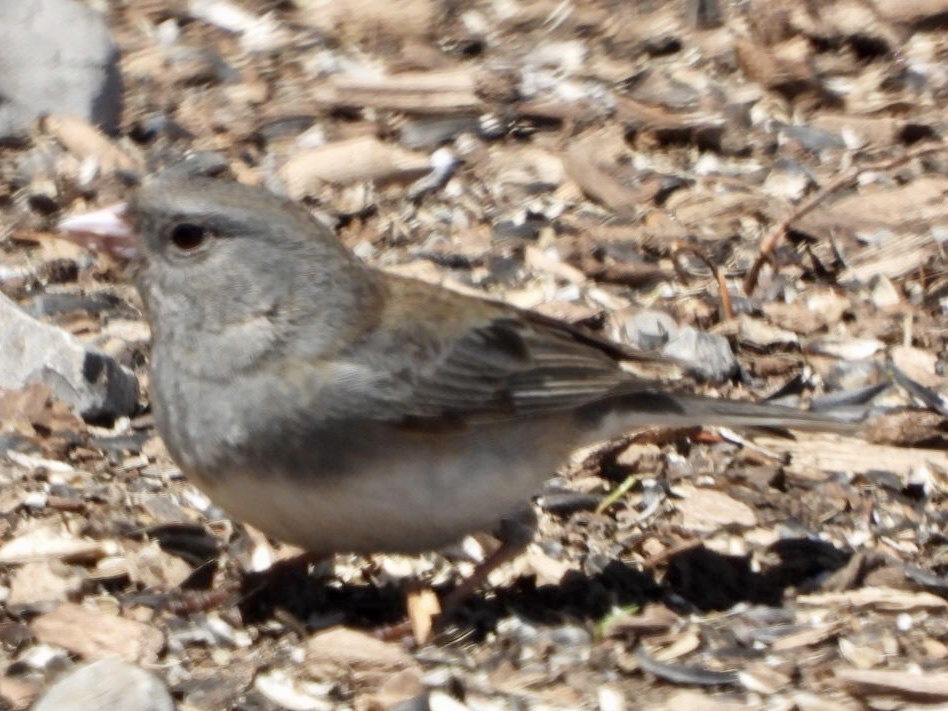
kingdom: Animalia
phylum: Chordata
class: Aves
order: Passeriformes
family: Passerellidae
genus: Junco
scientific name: Junco hyemalis
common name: Dark-eyed junco
